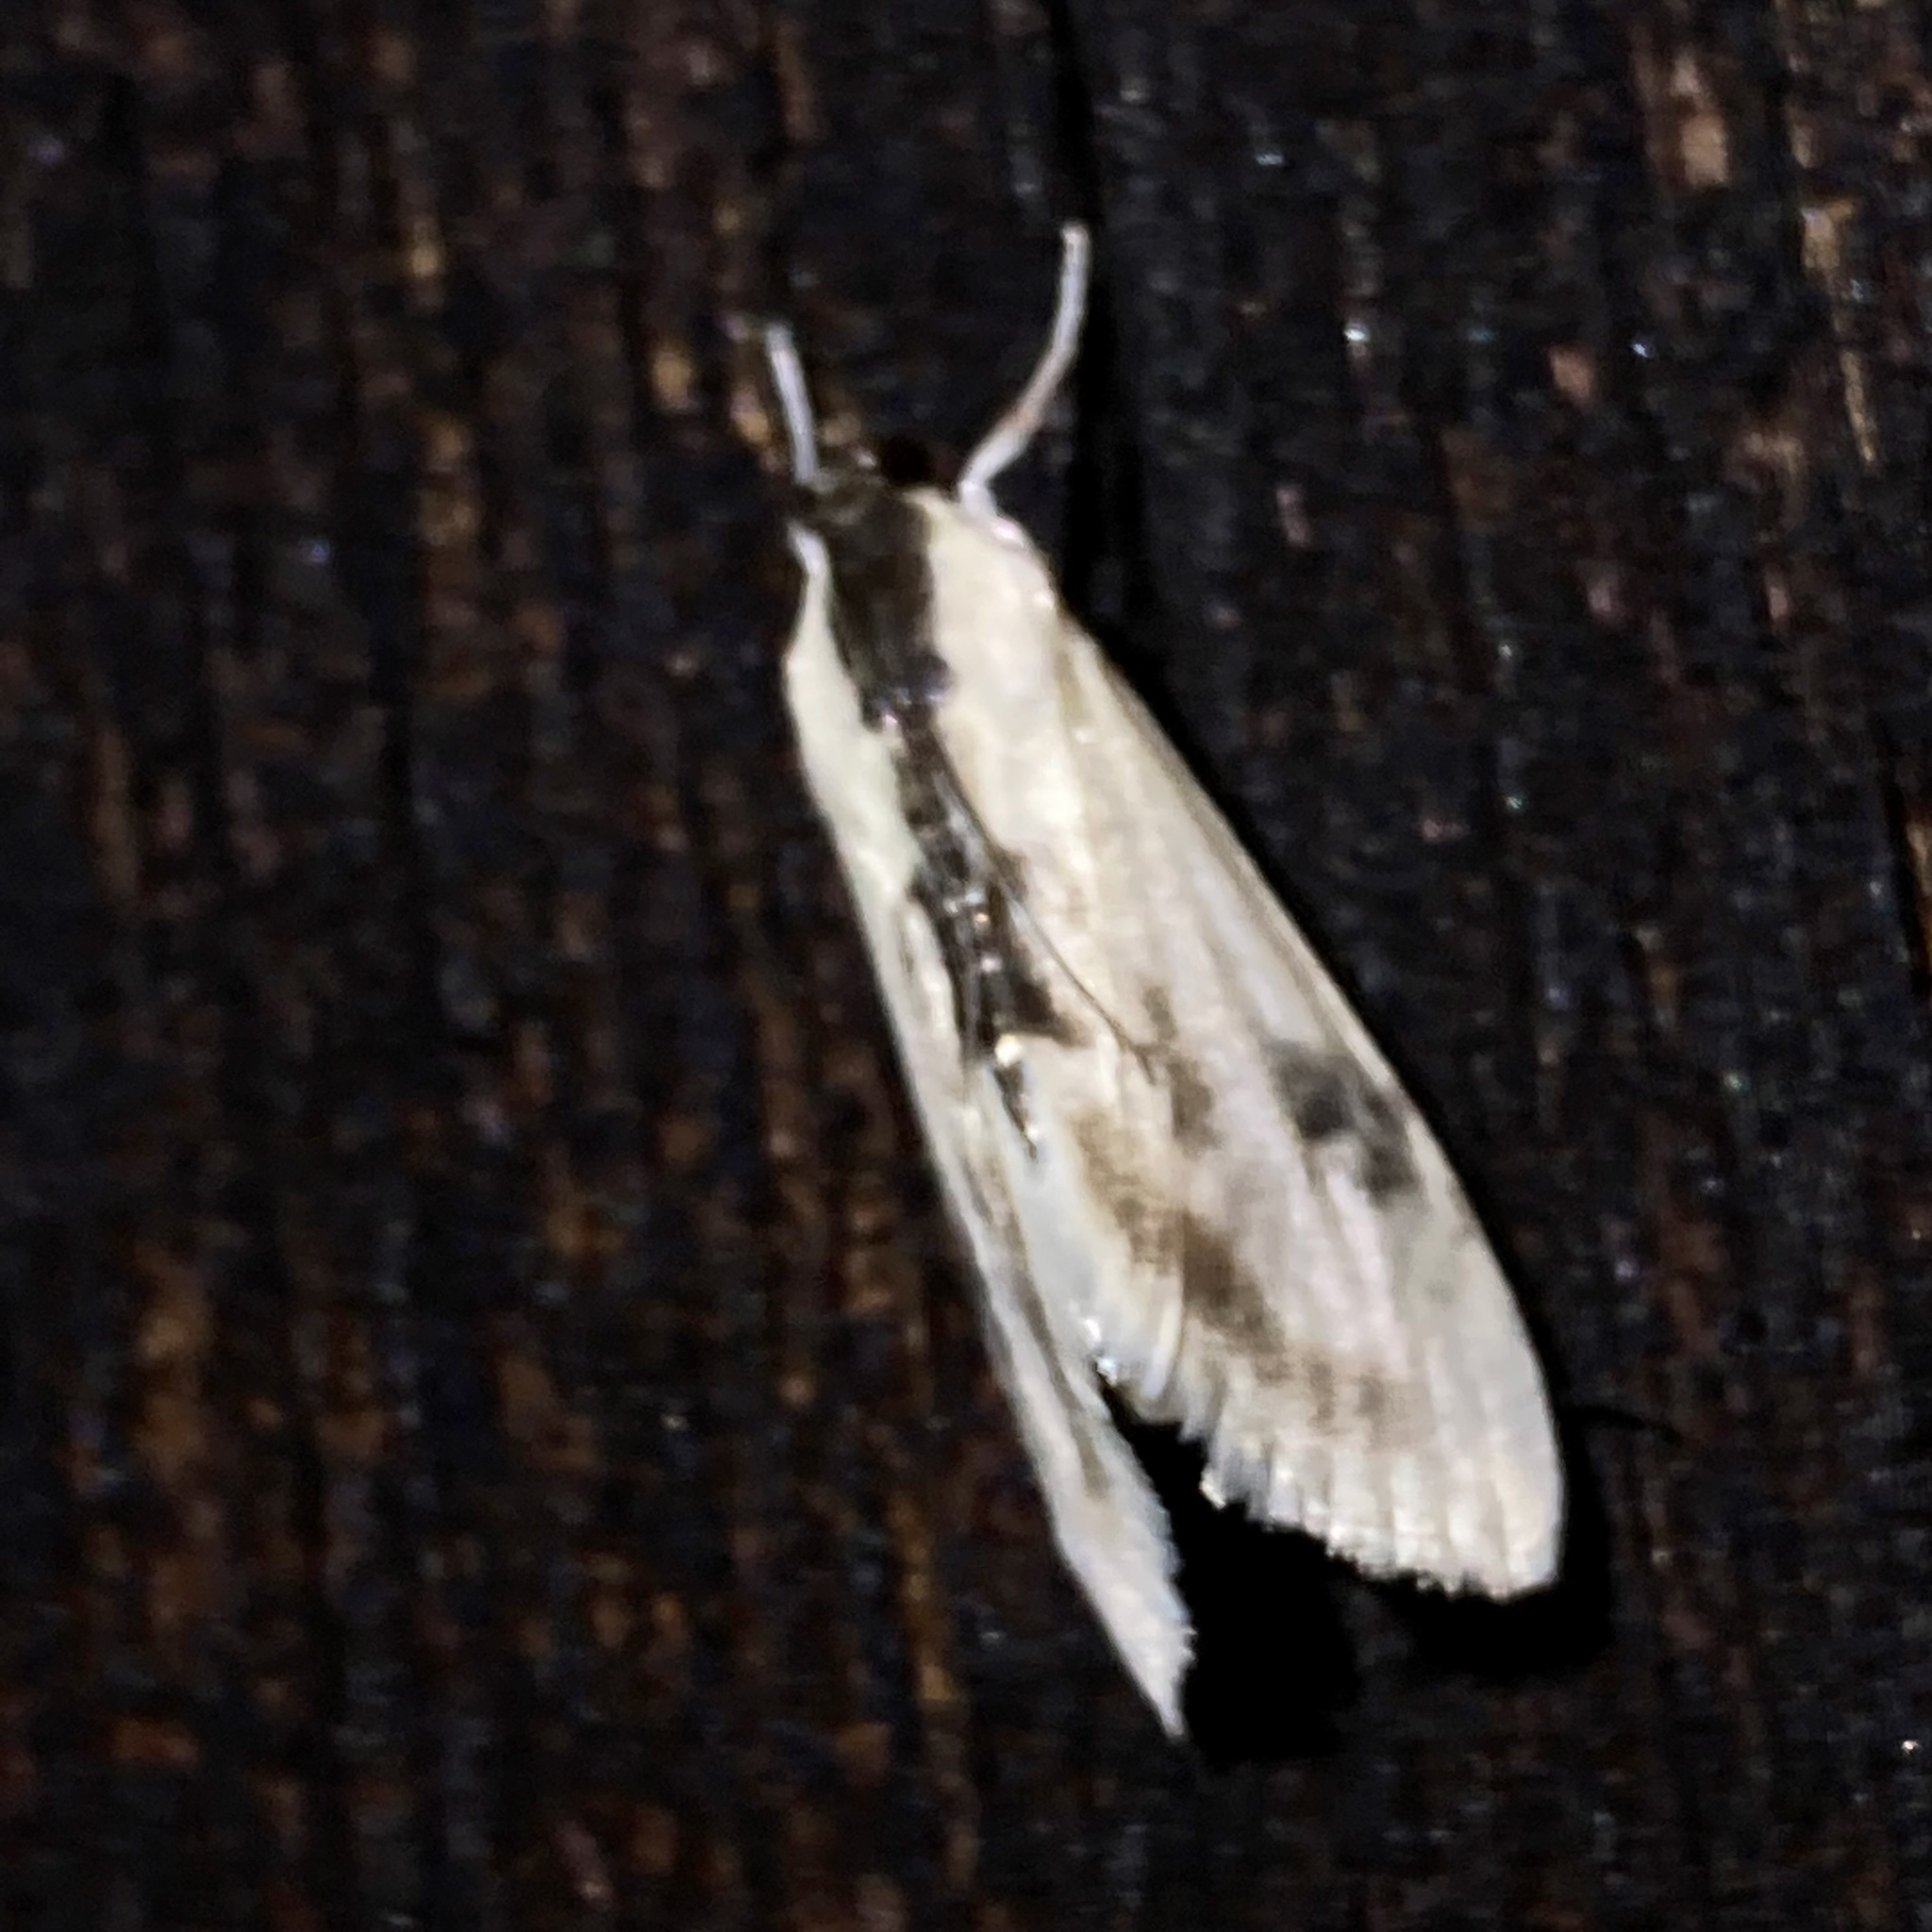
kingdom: Animalia
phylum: Arthropoda
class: Insecta
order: Lepidoptera
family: Crambidae
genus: Cliniodes
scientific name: Cliniodes
